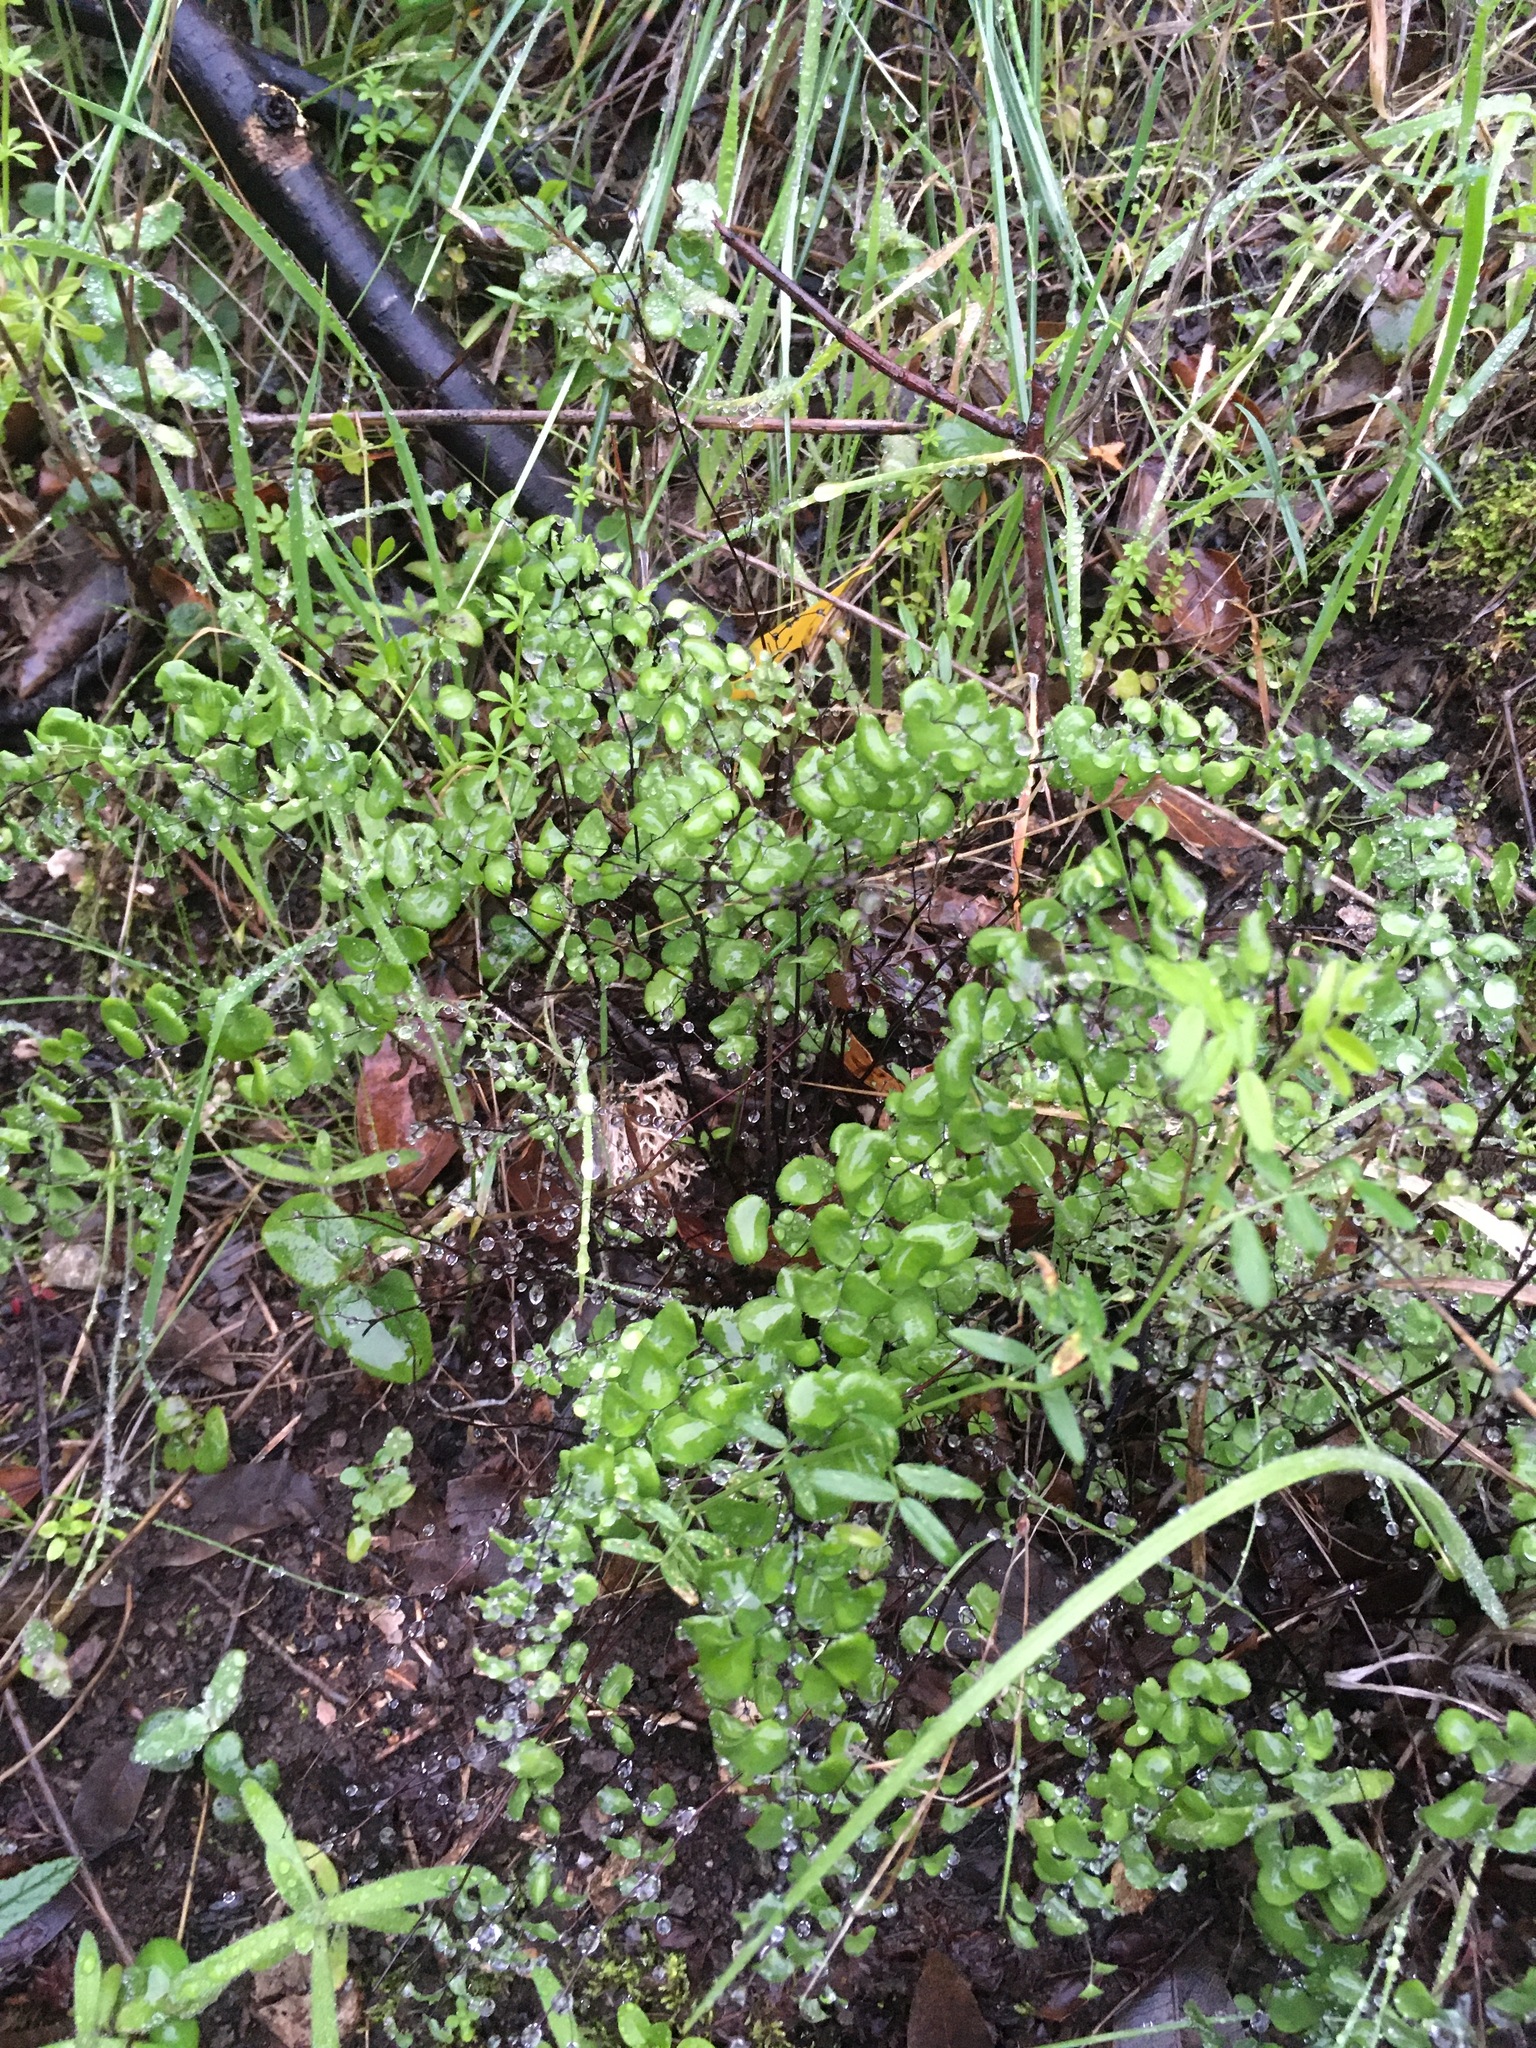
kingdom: Plantae
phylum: Tracheophyta
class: Polypodiopsida
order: Polypodiales
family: Pteridaceae
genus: Adiantum
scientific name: Adiantum jordanii
